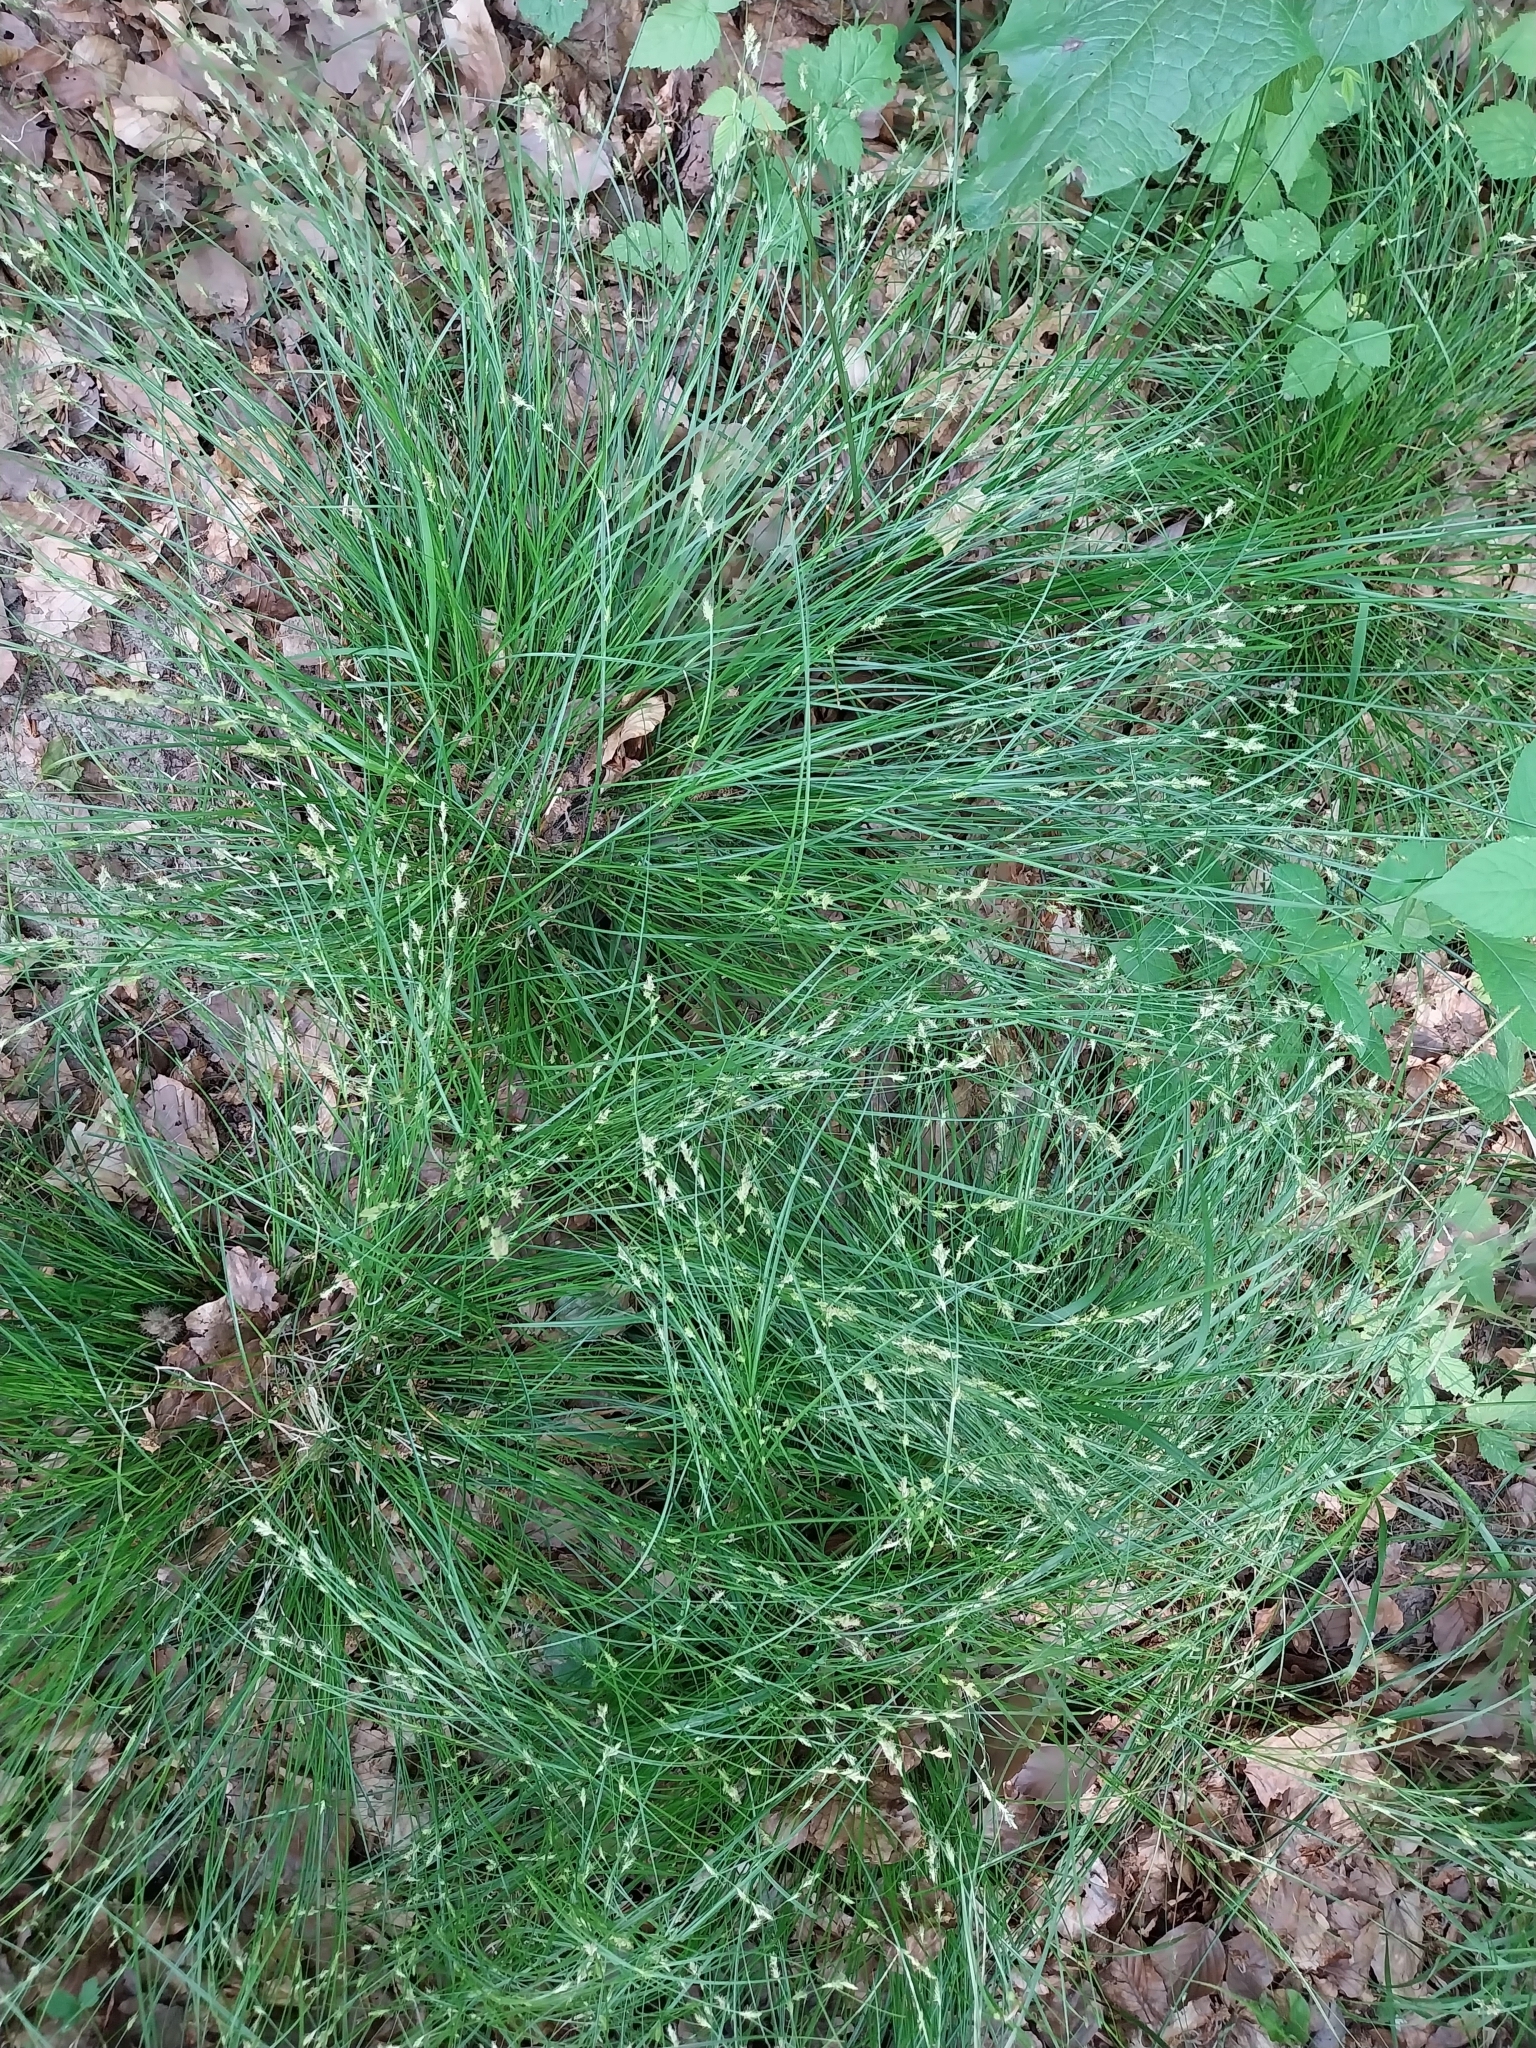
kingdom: Plantae
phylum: Tracheophyta
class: Liliopsida
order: Poales
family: Cyperaceae
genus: Carex
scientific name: Carex remota
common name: Remote sedge
